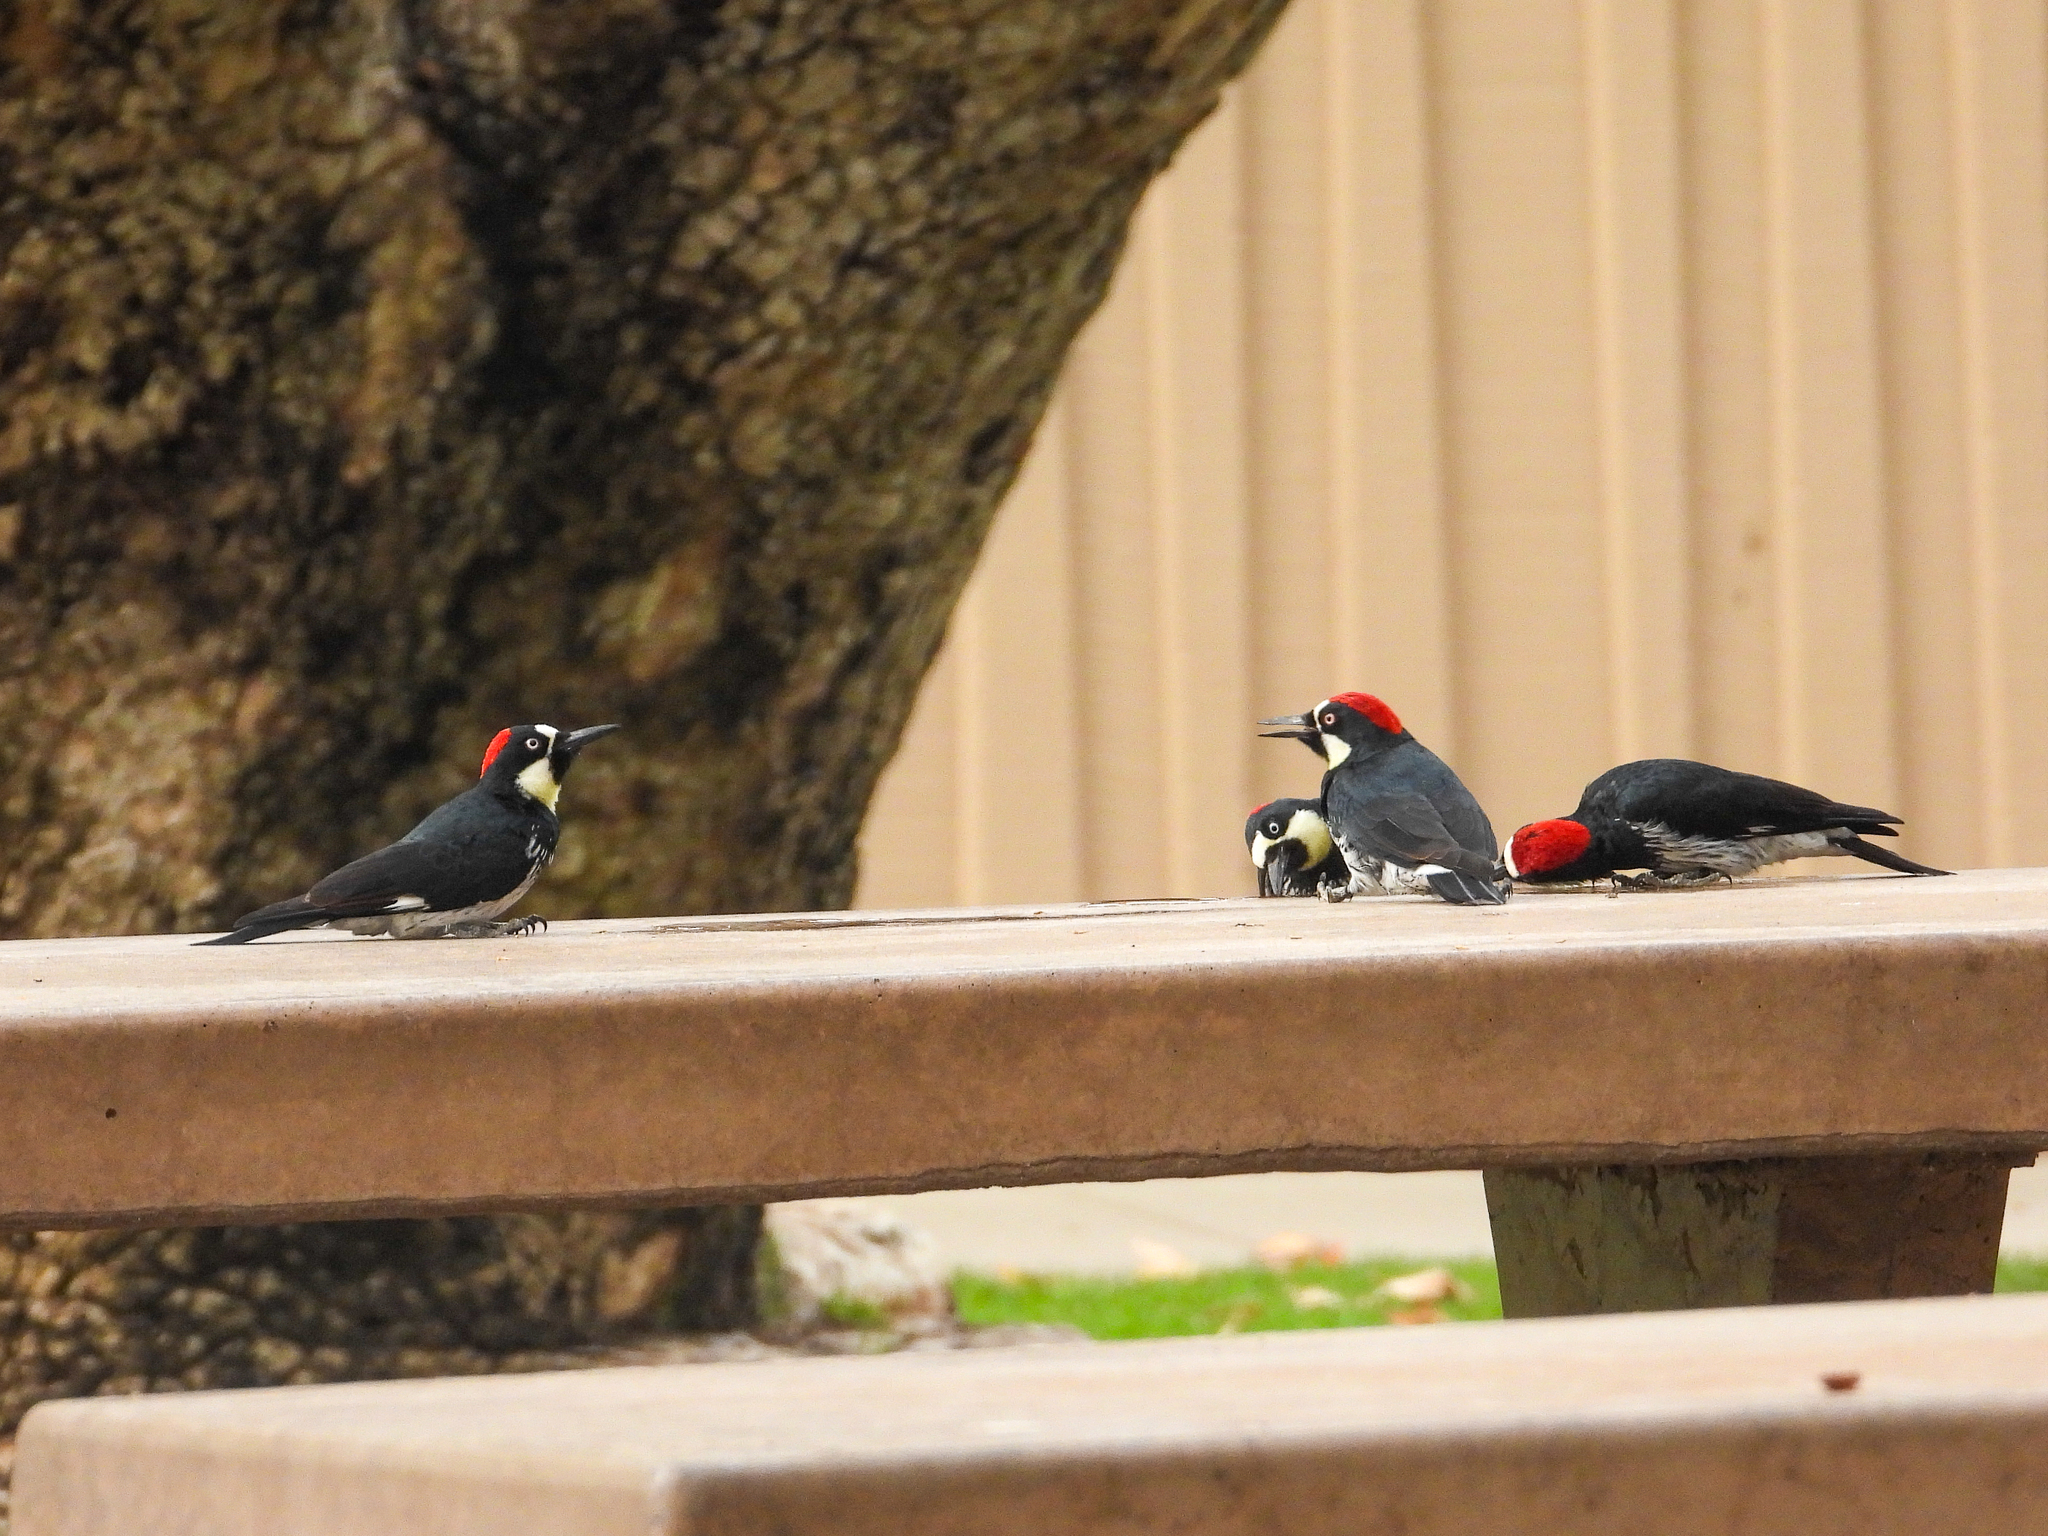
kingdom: Animalia
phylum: Chordata
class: Aves
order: Piciformes
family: Picidae
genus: Melanerpes
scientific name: Melanerpes formicivorus
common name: Acorn woodpecker
